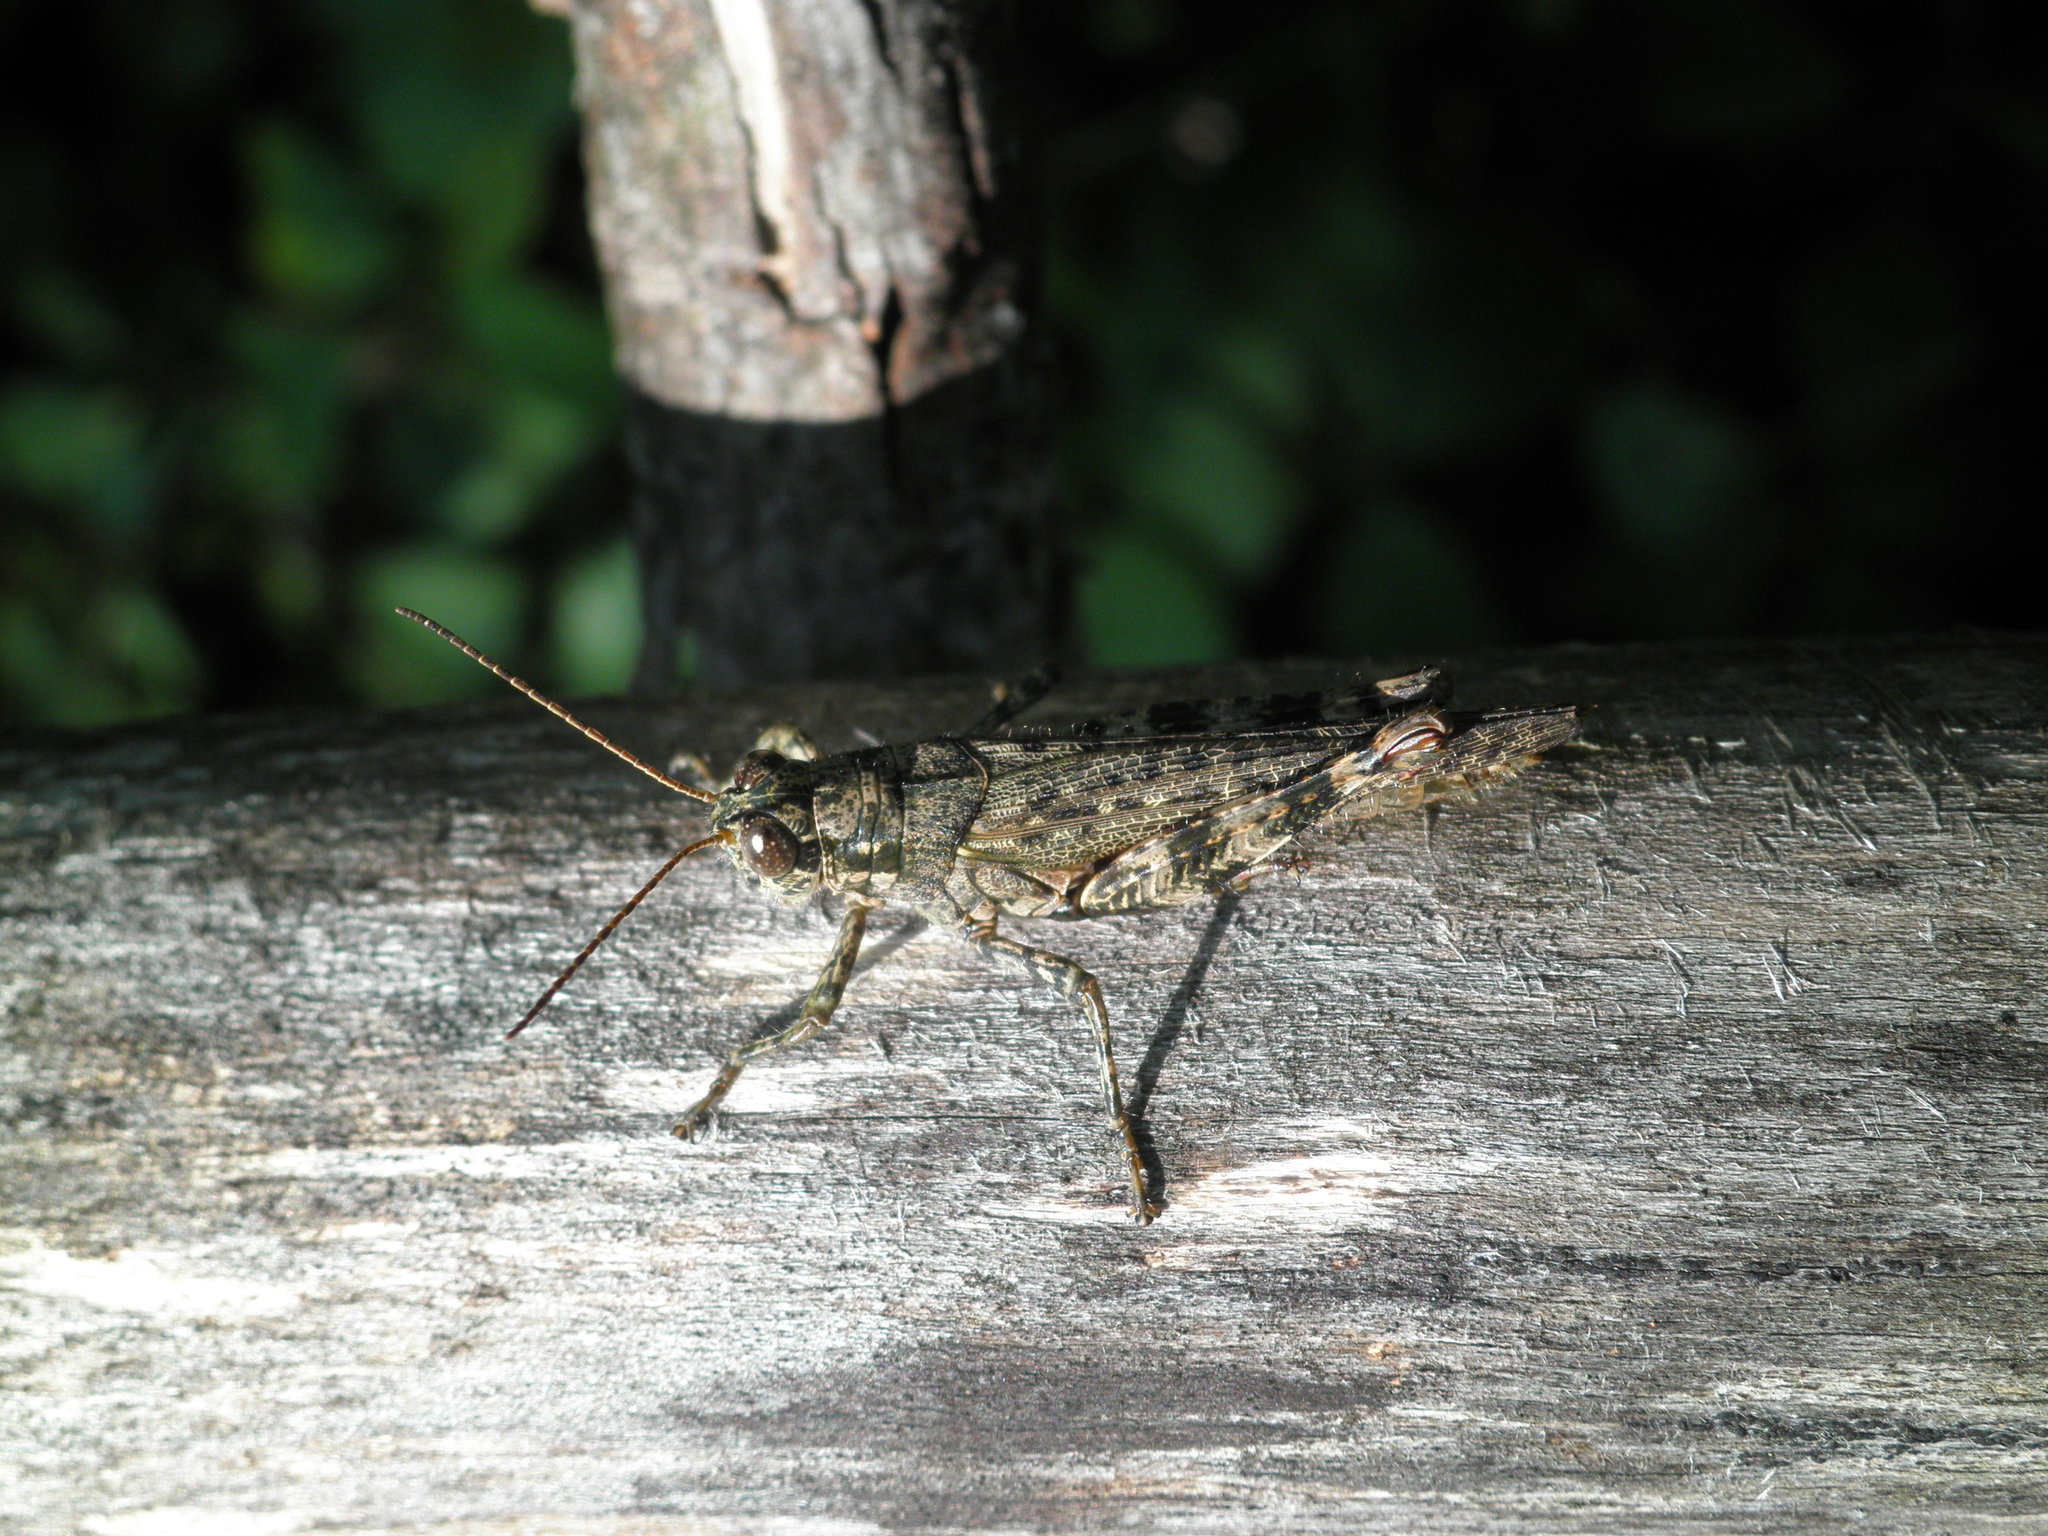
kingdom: Animalia
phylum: Arthropoda
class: Insecta
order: Orthoptera
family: Acrididae
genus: Melanoplus
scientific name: Melanoplus punctulatus
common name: Pine-tree spur-throat grasshopper
